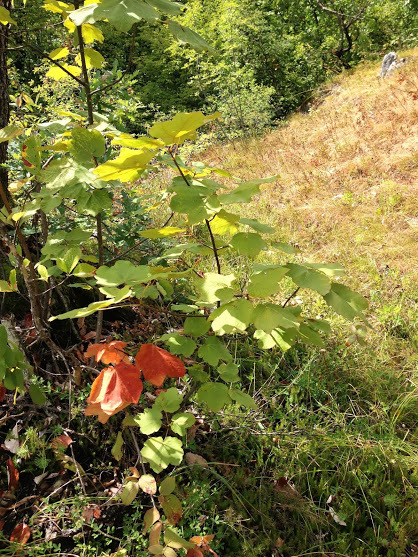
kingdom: Plantae
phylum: Tracheophyta
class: Magnoliopsida
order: Sapindales
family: Sapindaceae
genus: Acer
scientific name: Acer obtusatum
